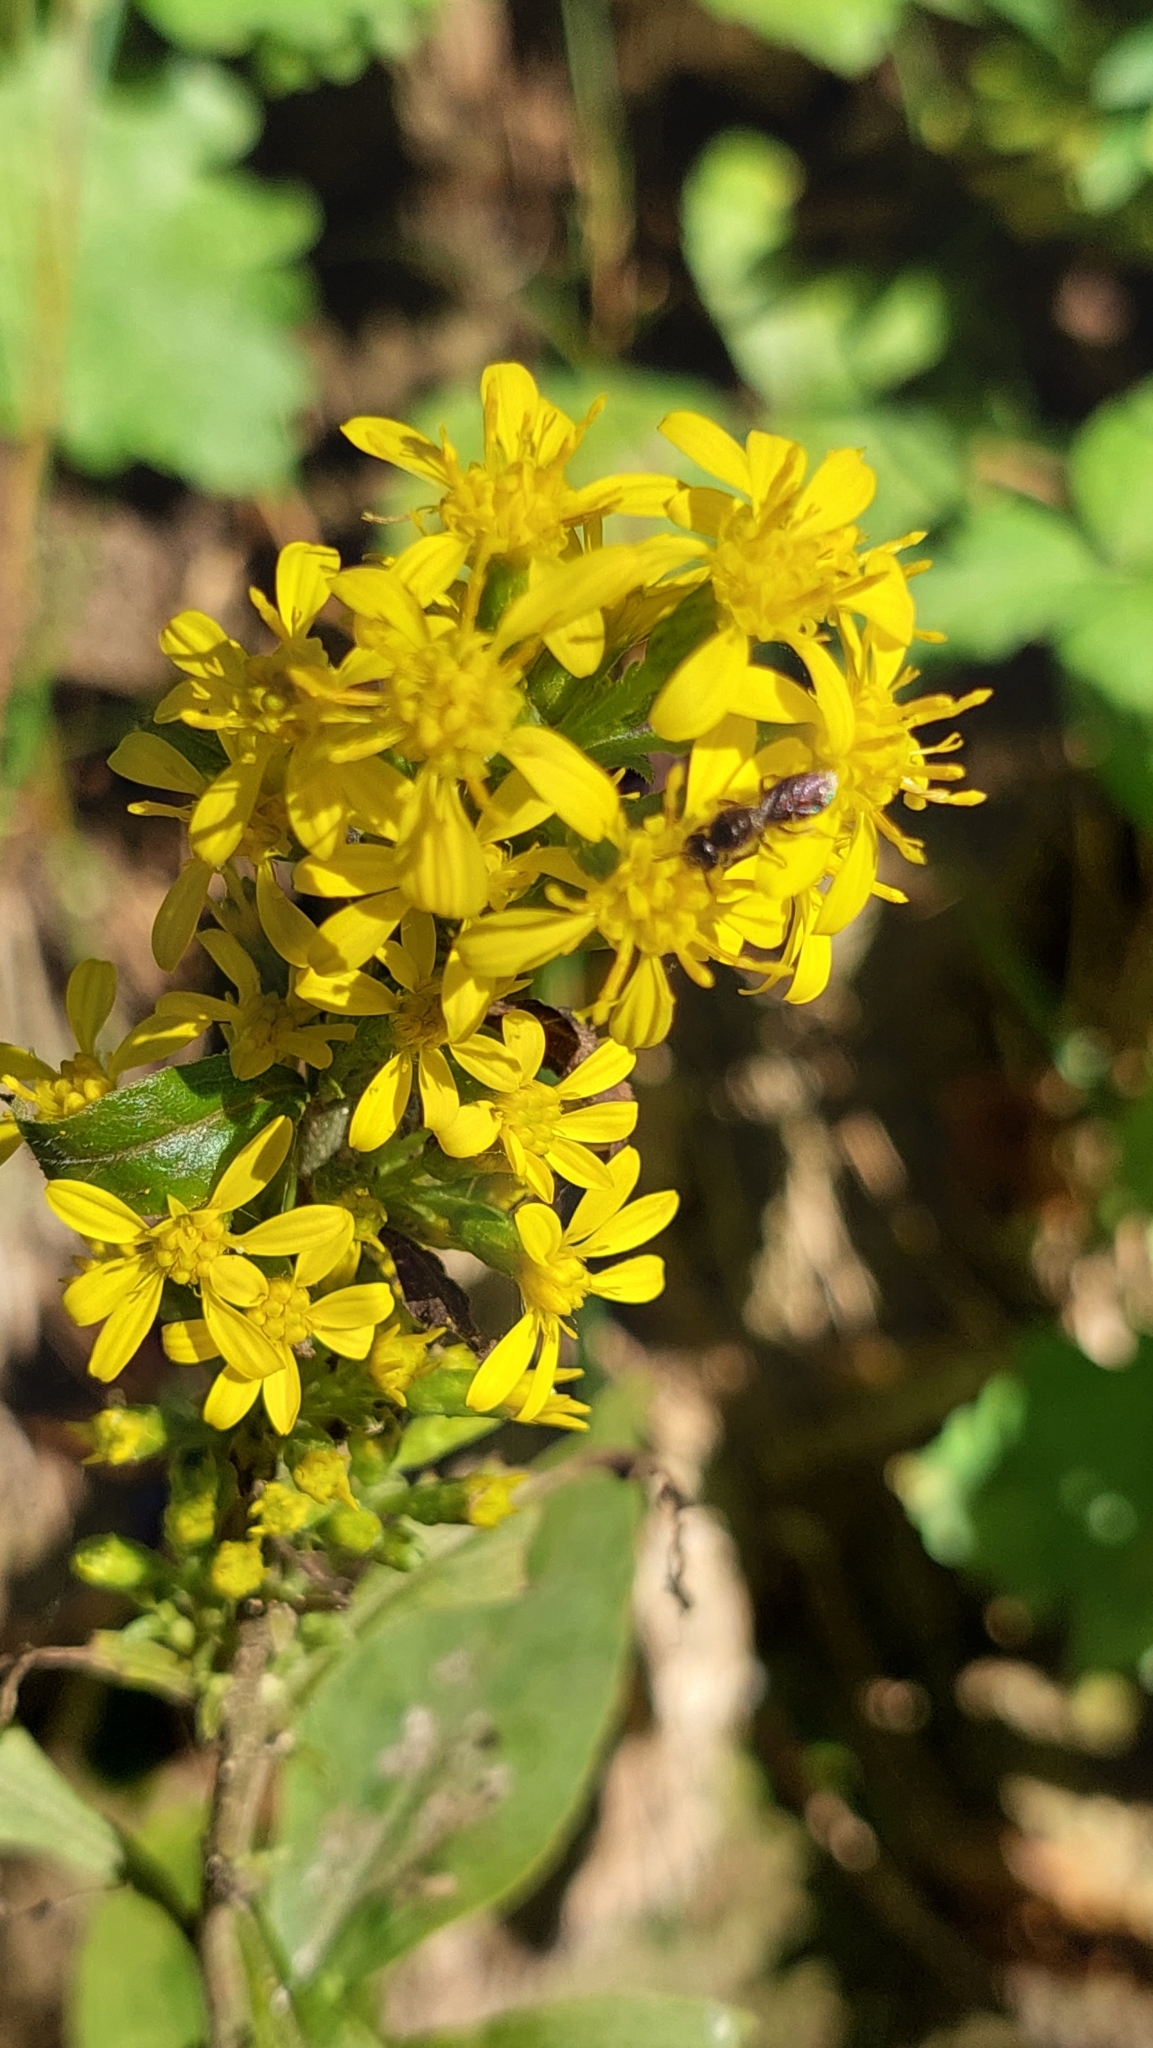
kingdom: Plantae
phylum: Tracheophyta
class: Magnoliopsida
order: Asterales
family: Asteraceae
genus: Solidago
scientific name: Solidago virgaurea
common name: Goldenrod
